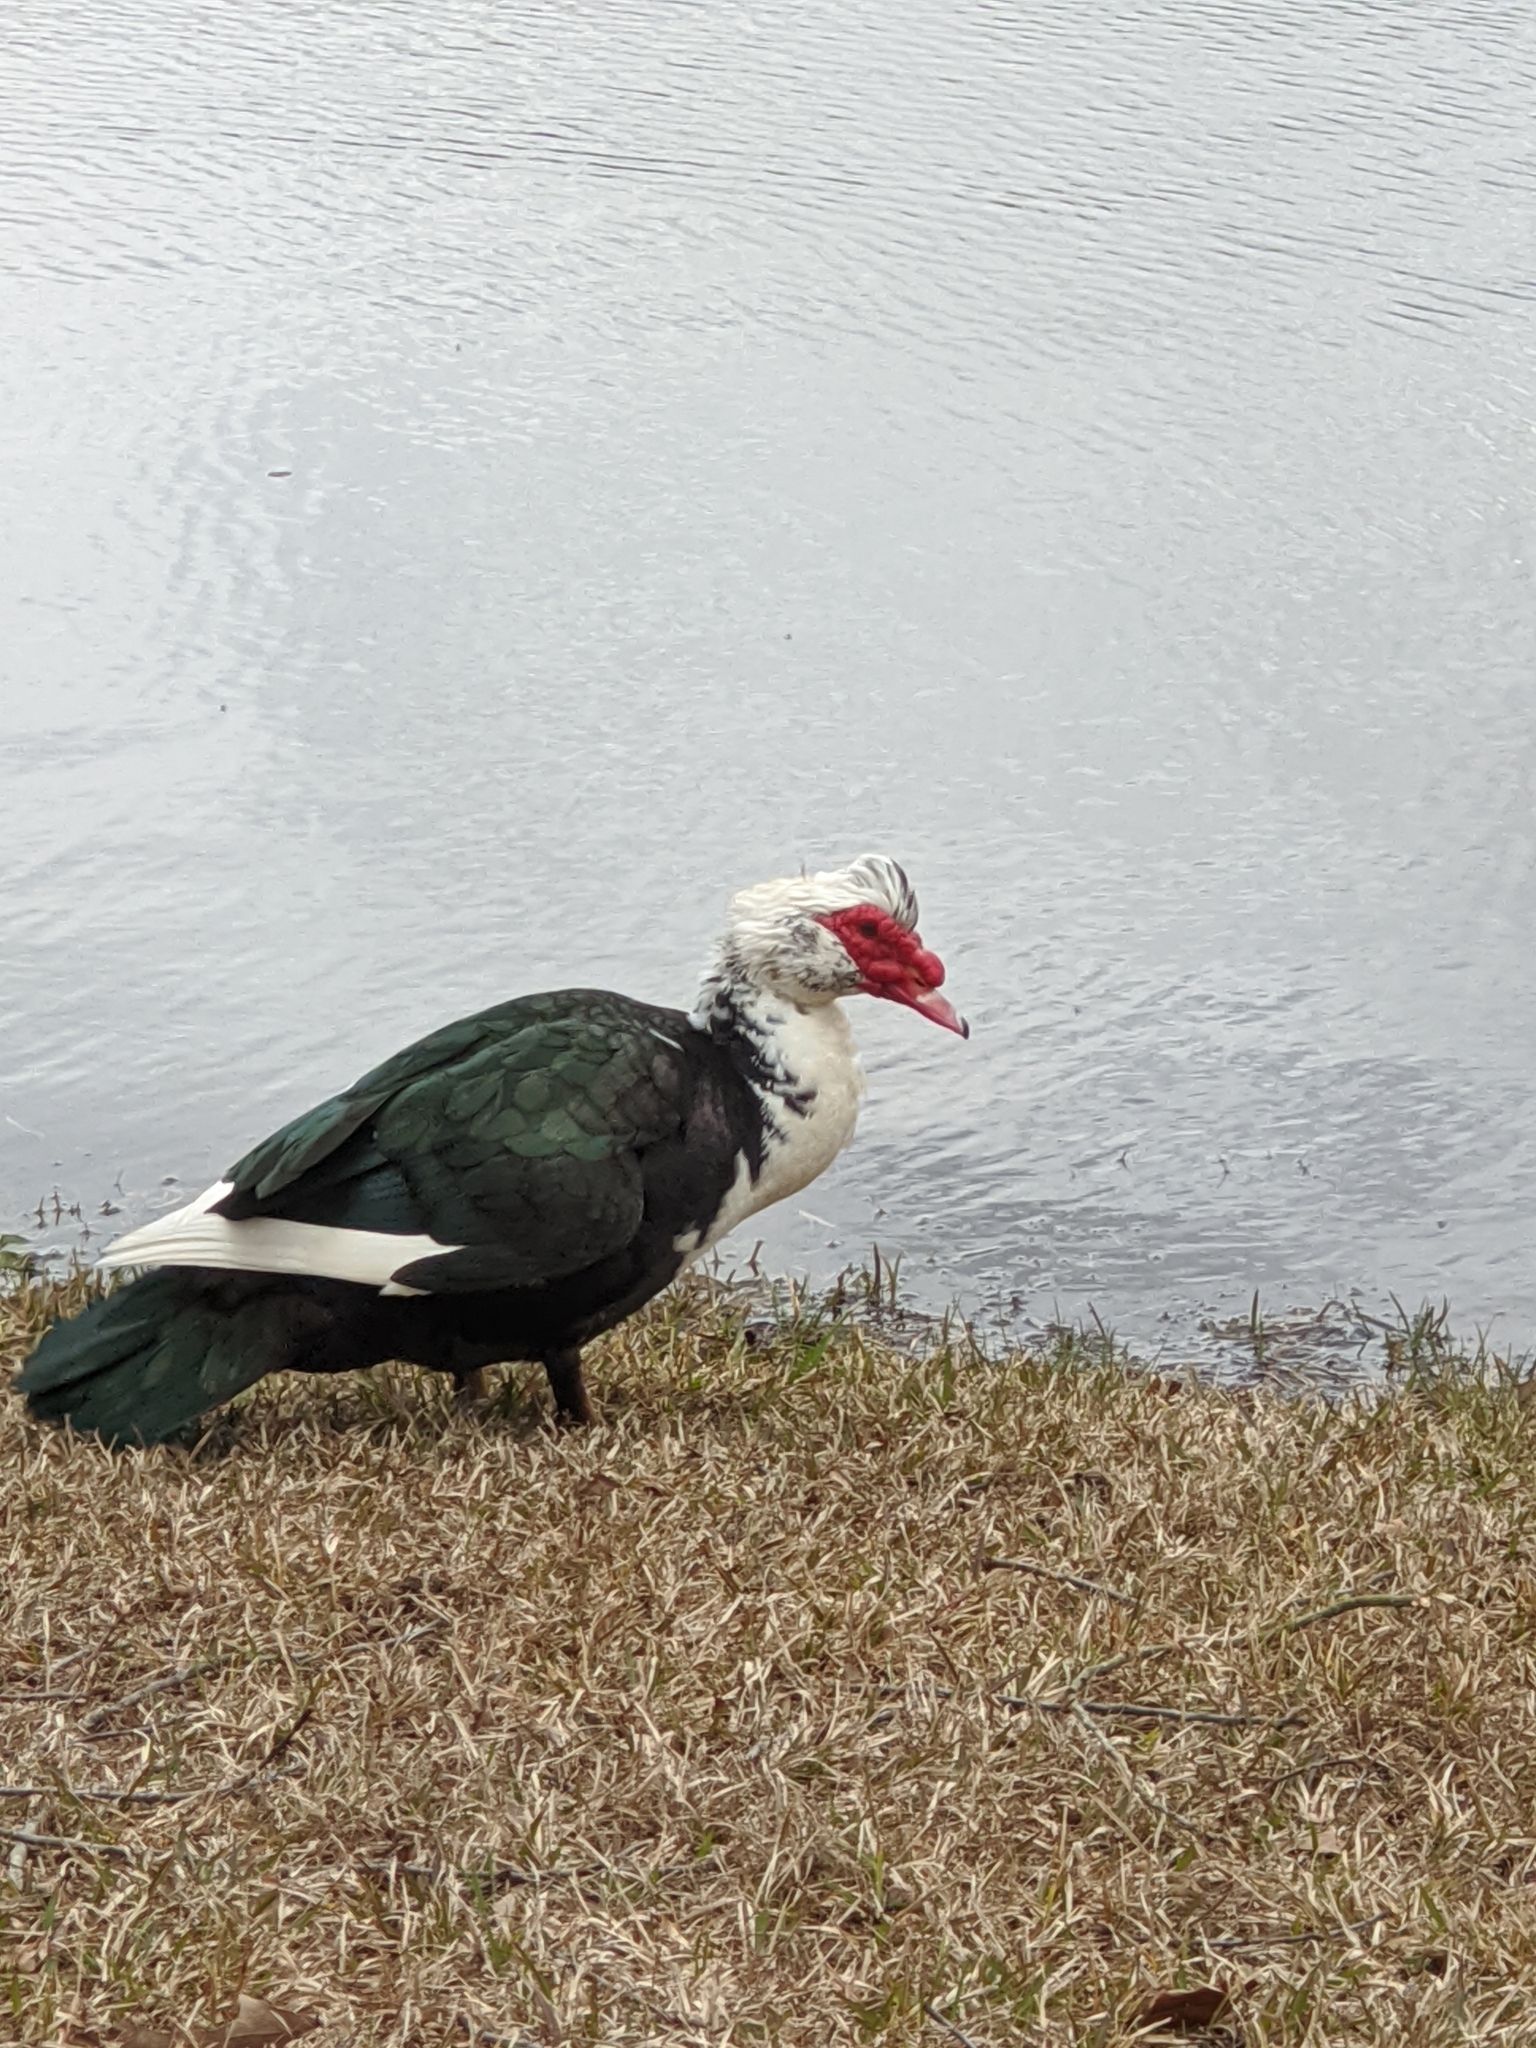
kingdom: Animalia
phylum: Chordata
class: Aves
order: Anseriformes
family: Anatidae
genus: Cairina
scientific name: Cairina moschata
